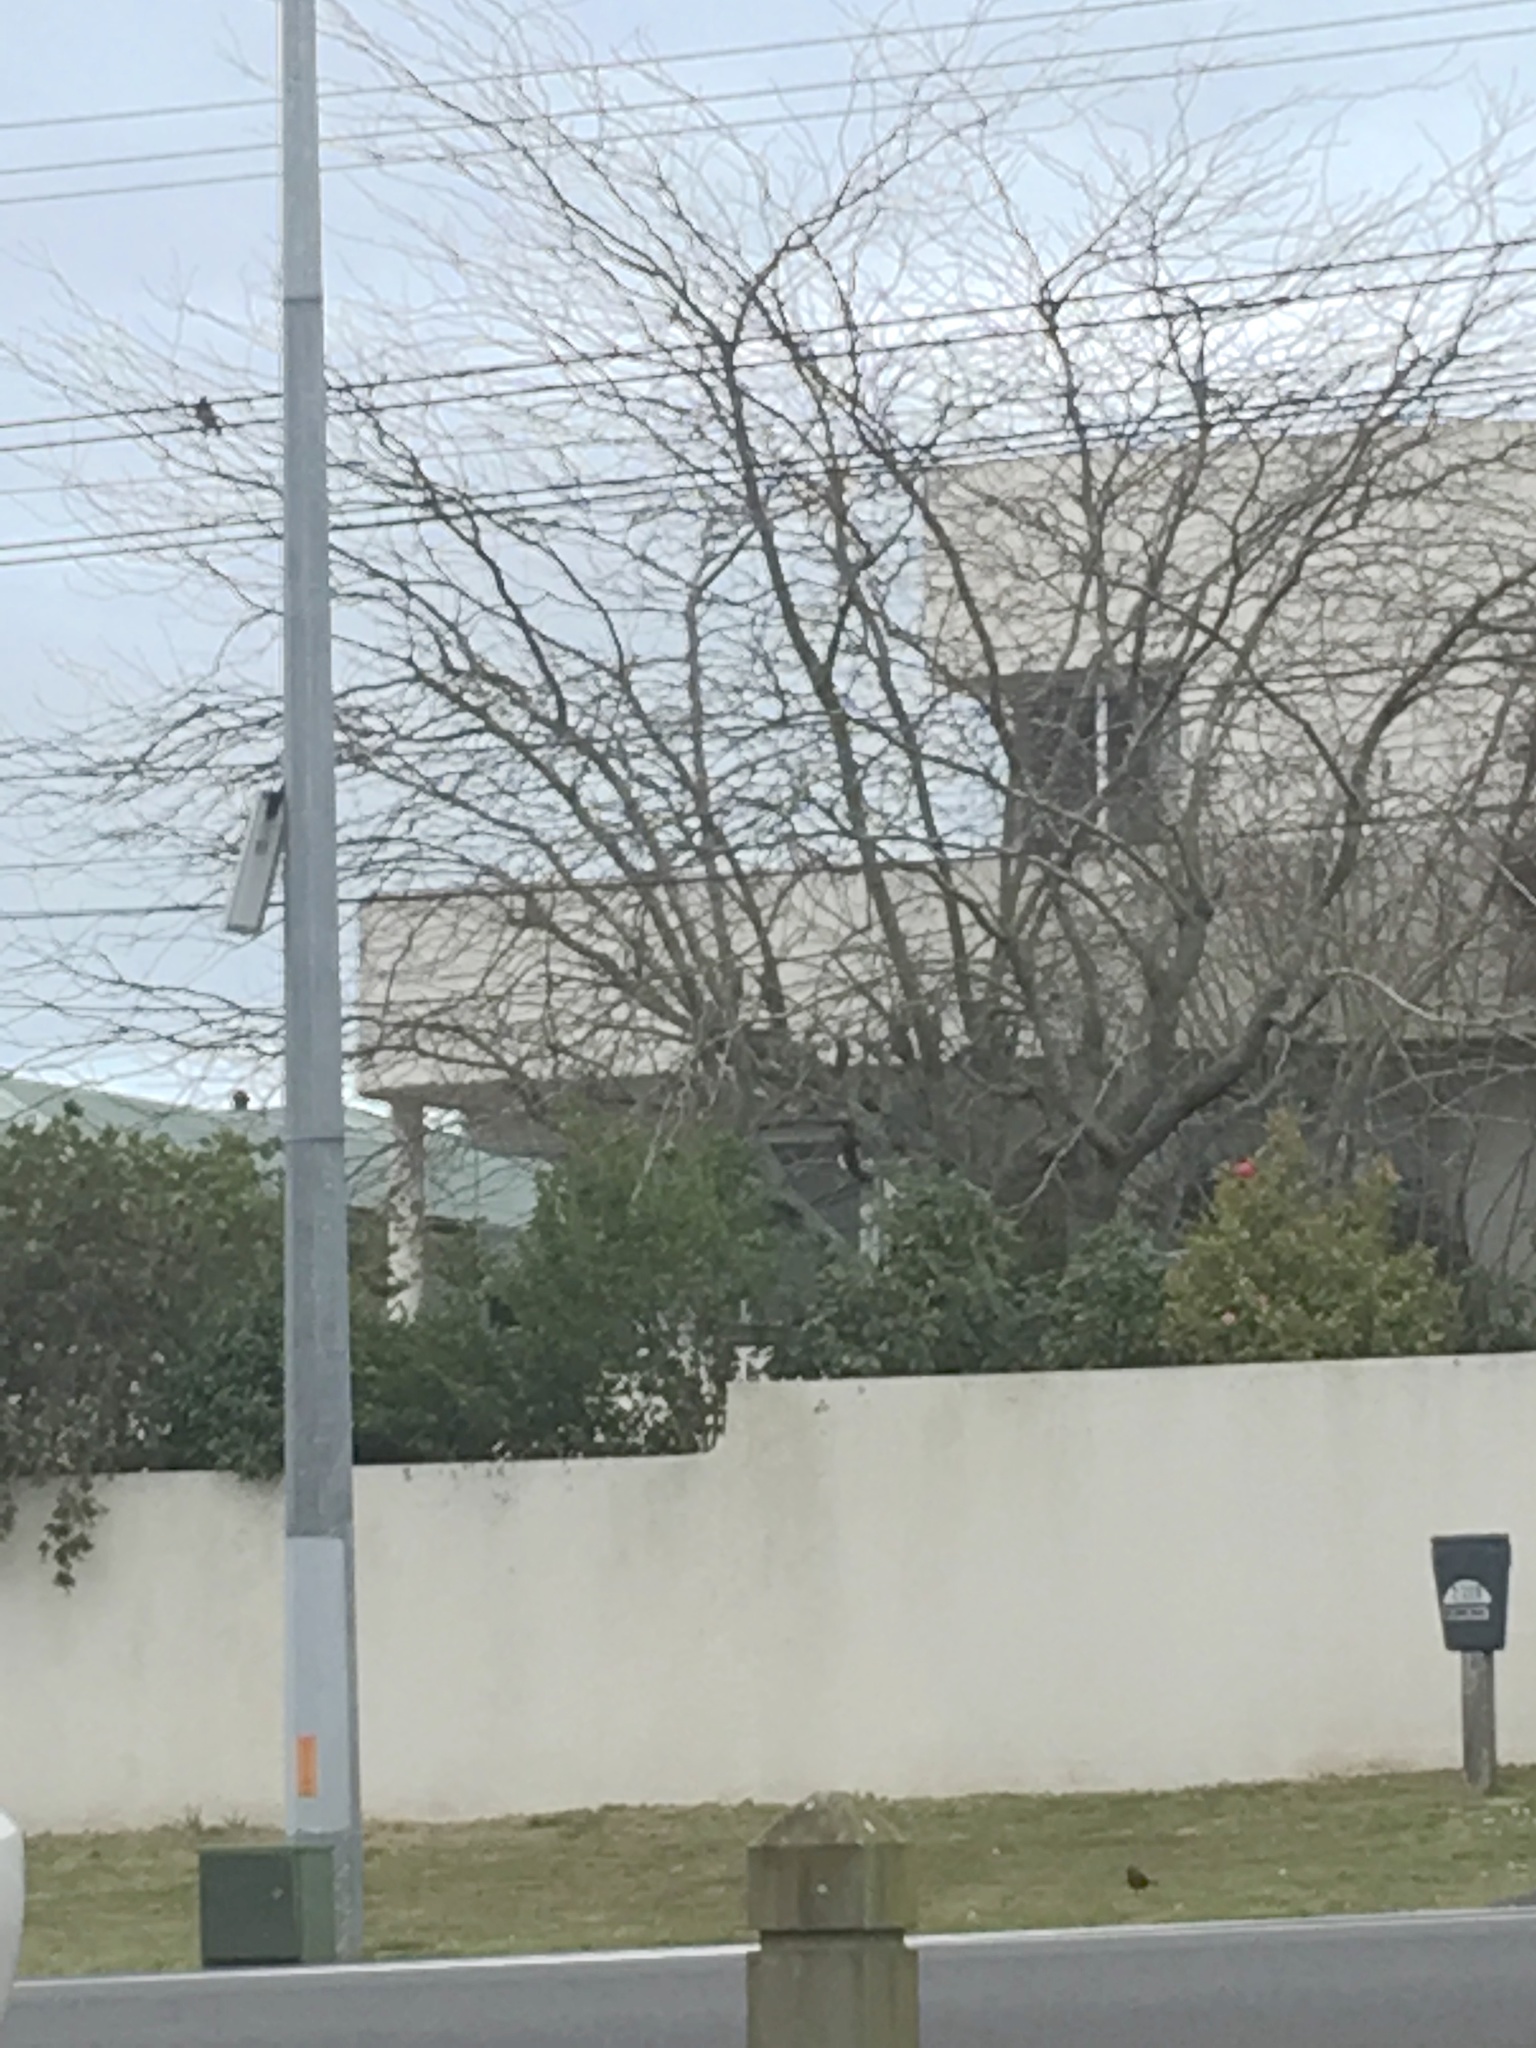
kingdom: Animalia
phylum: Chordata
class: Aves
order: Passeriformes
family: Meliphagidae
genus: Prosthemadera
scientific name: Prosthemadera novaeseelandiae
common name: Tui
